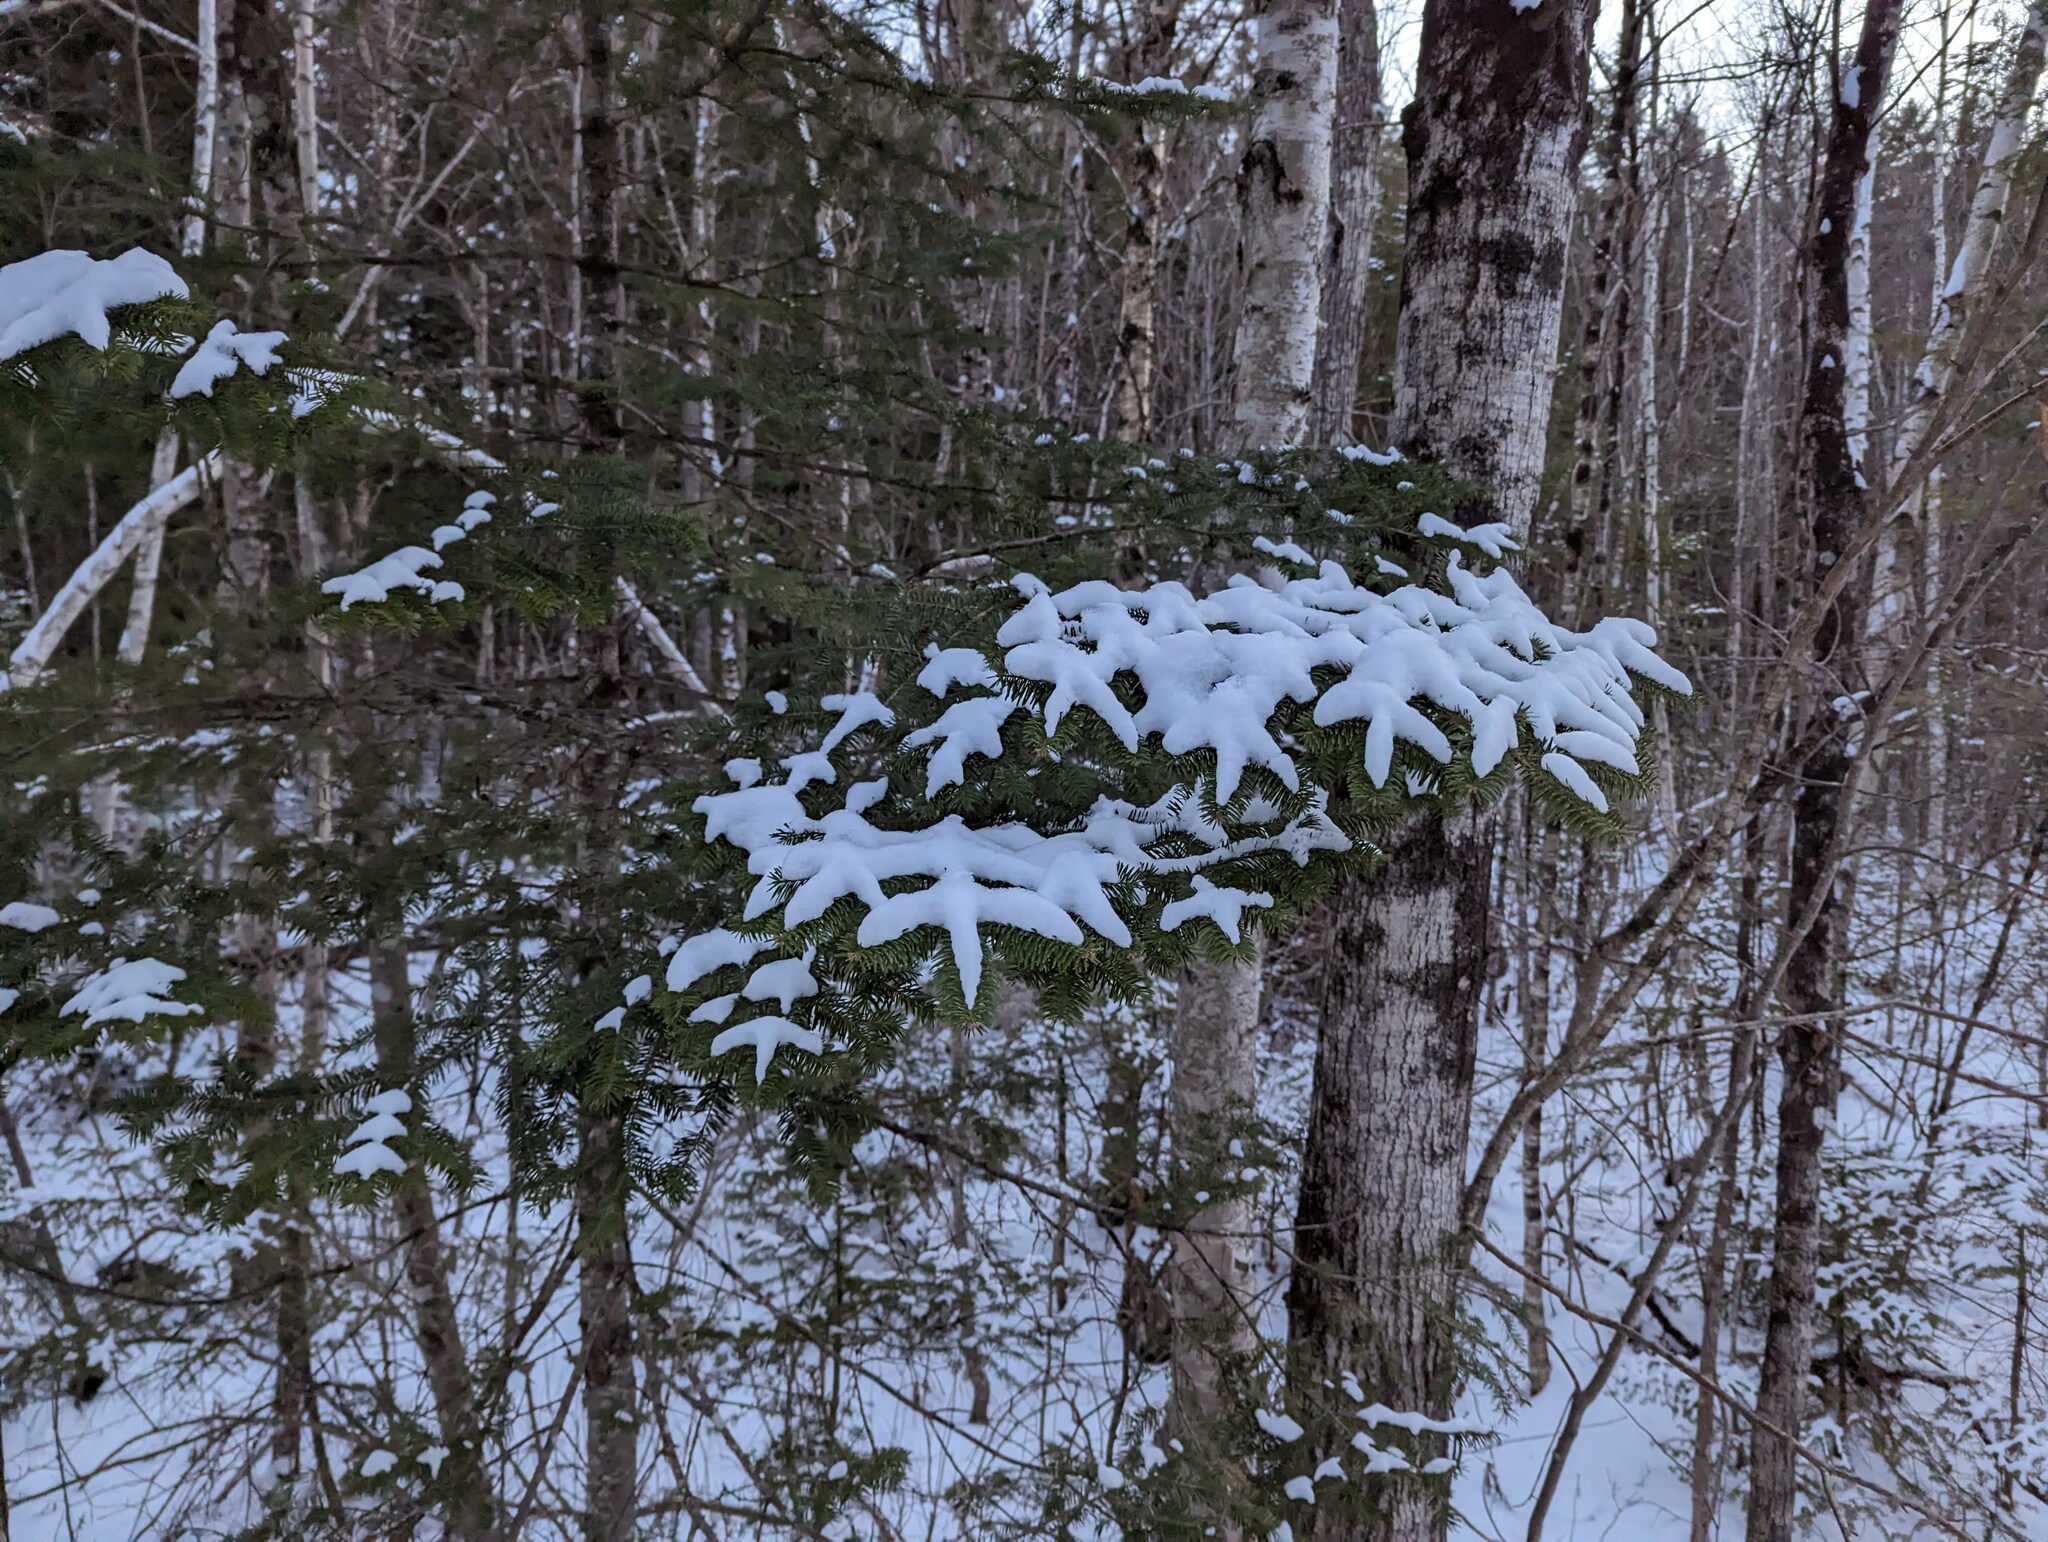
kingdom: Plantae
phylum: Tracheophyta
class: Pinopsida
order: Pinales
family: Pinaceae
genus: Abies
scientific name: Abies balsamea
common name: Balsam fir
